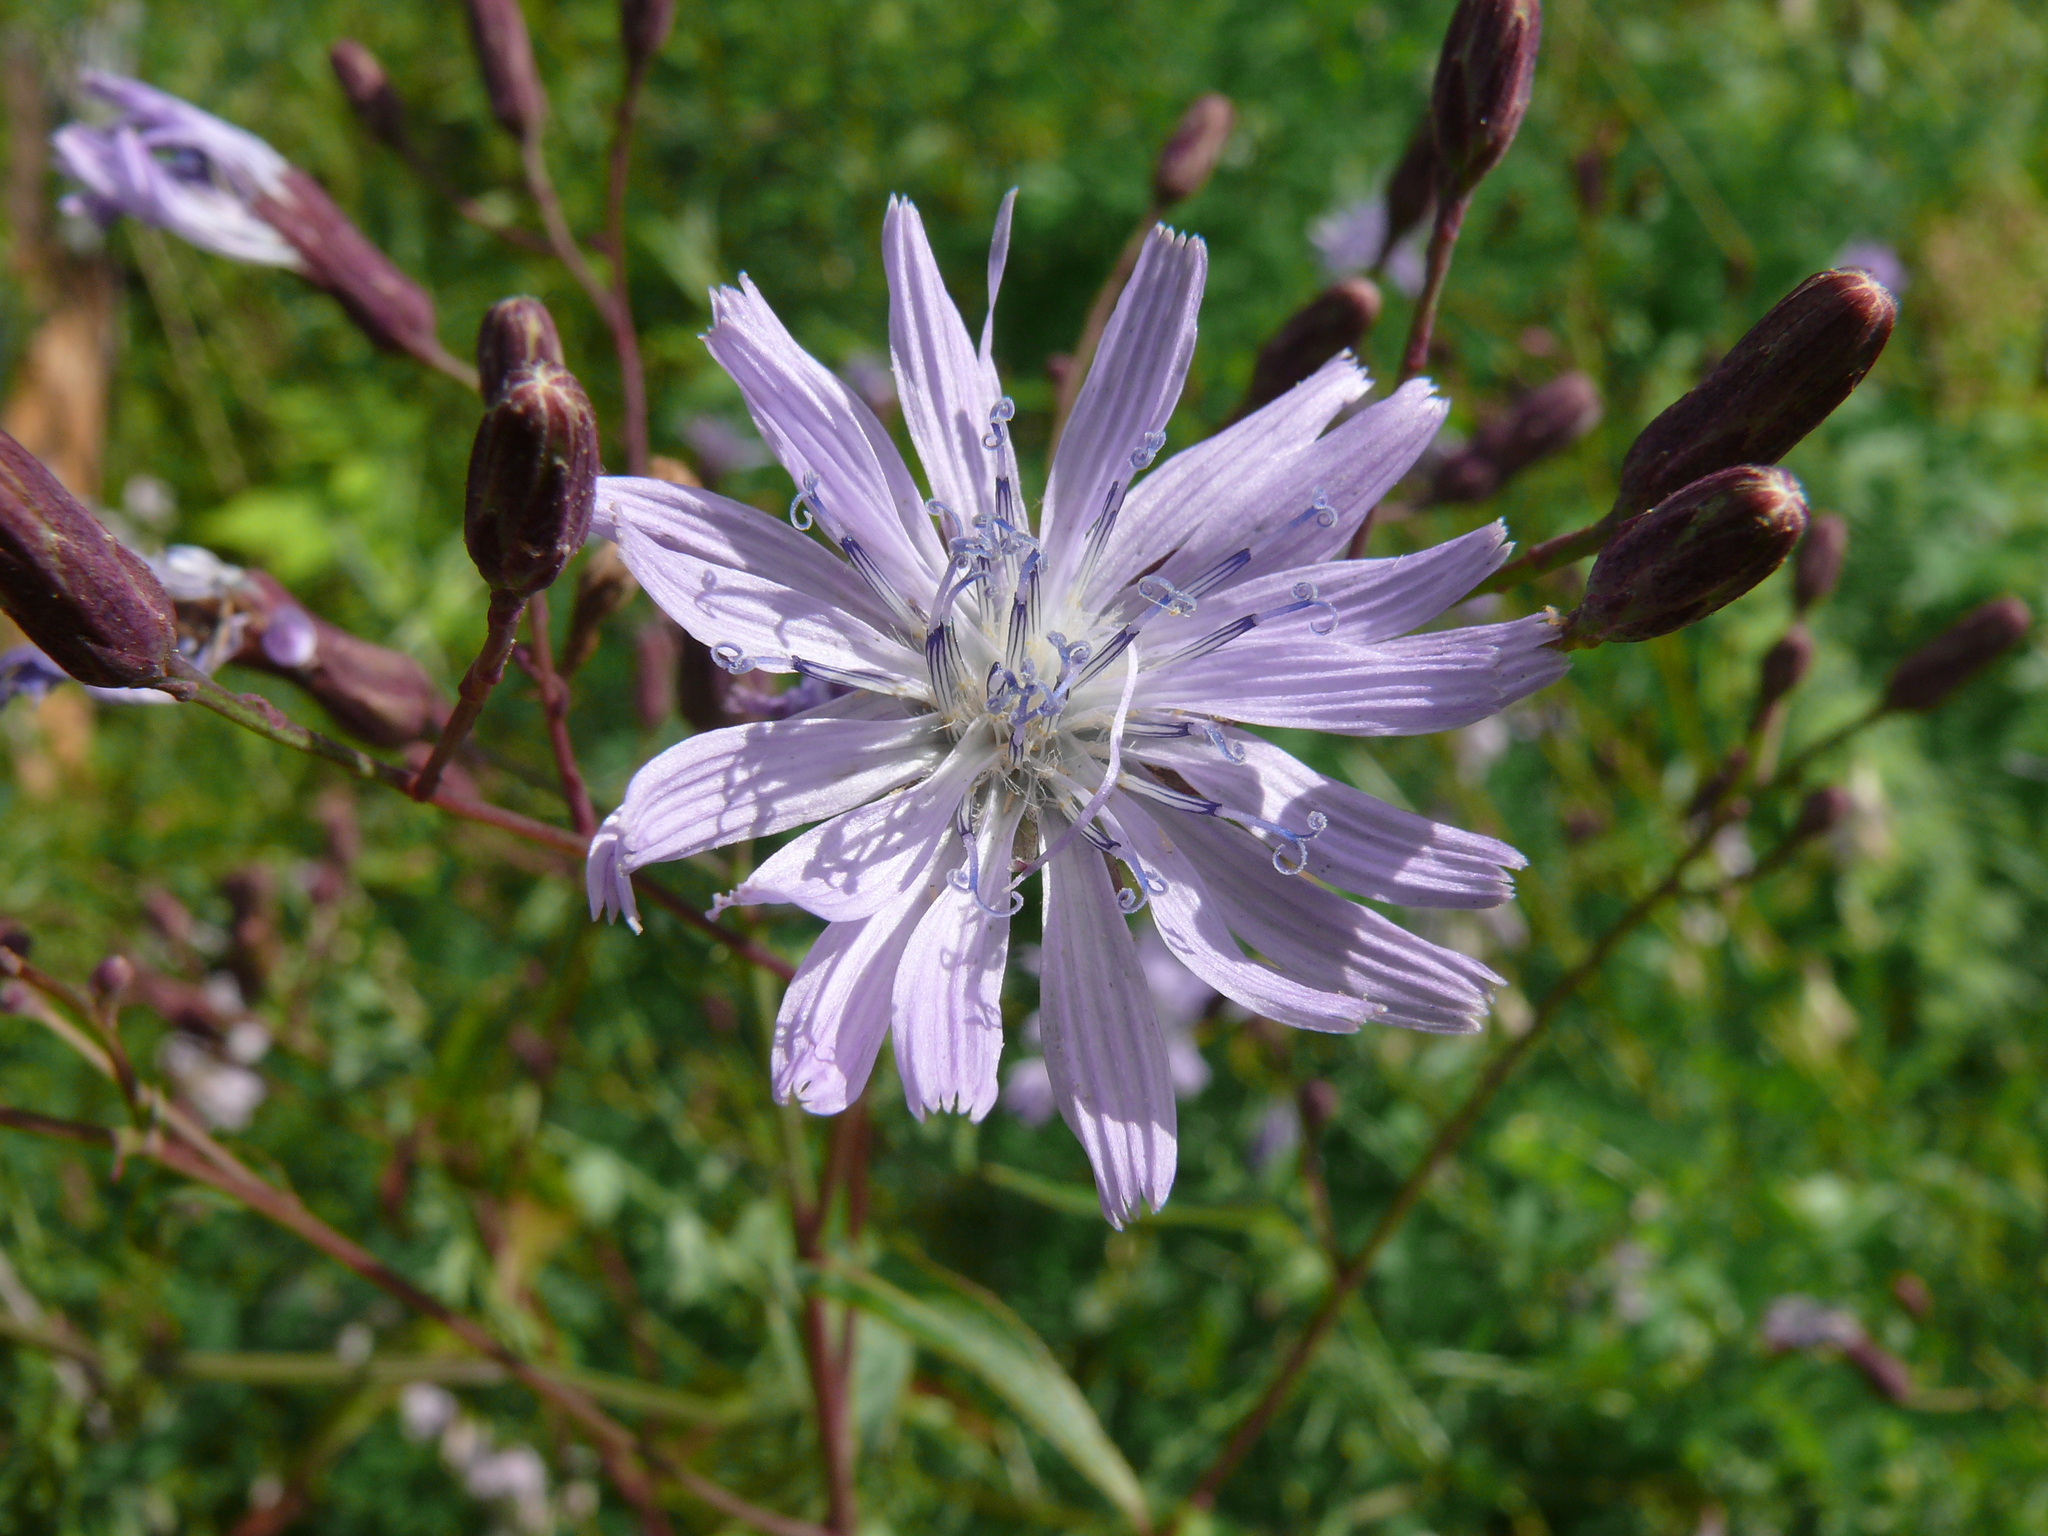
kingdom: Plantae
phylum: Tracheophyta
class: Magnoliopsida
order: Asterales
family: Asteraceae
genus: Lactuca
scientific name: Lactuca sibirica
